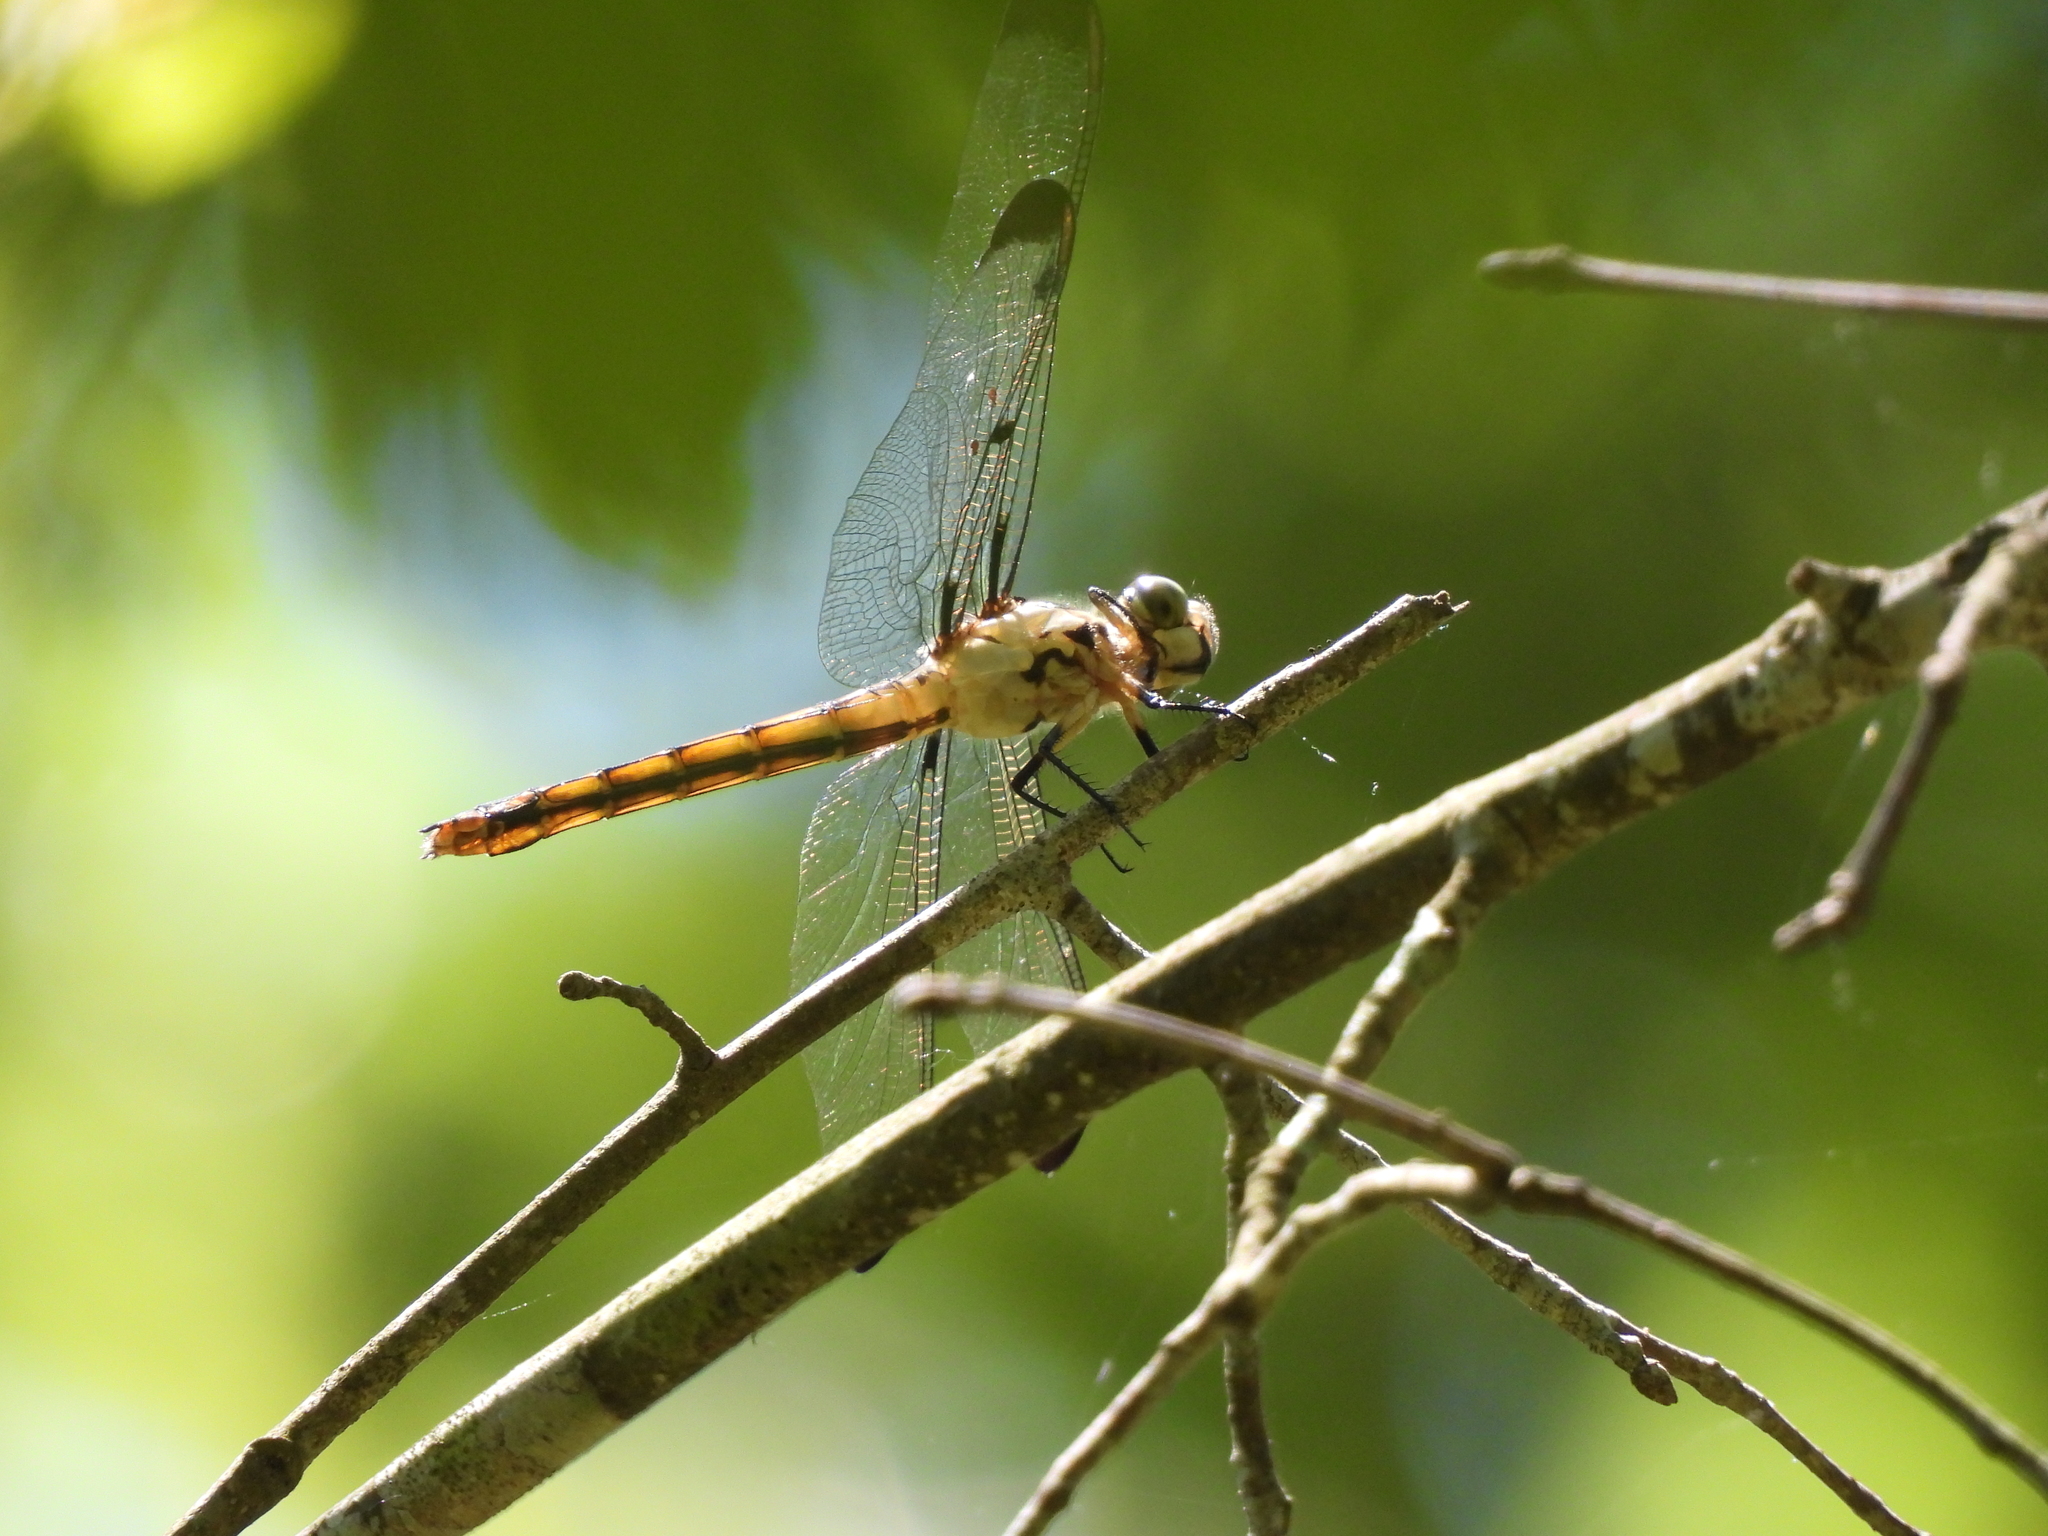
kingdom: Animalia
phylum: Arthropoda
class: Insecta
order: Odonata
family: Libellulidae
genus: Libellula
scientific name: Libellula vibrans
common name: Great blue skimmer
